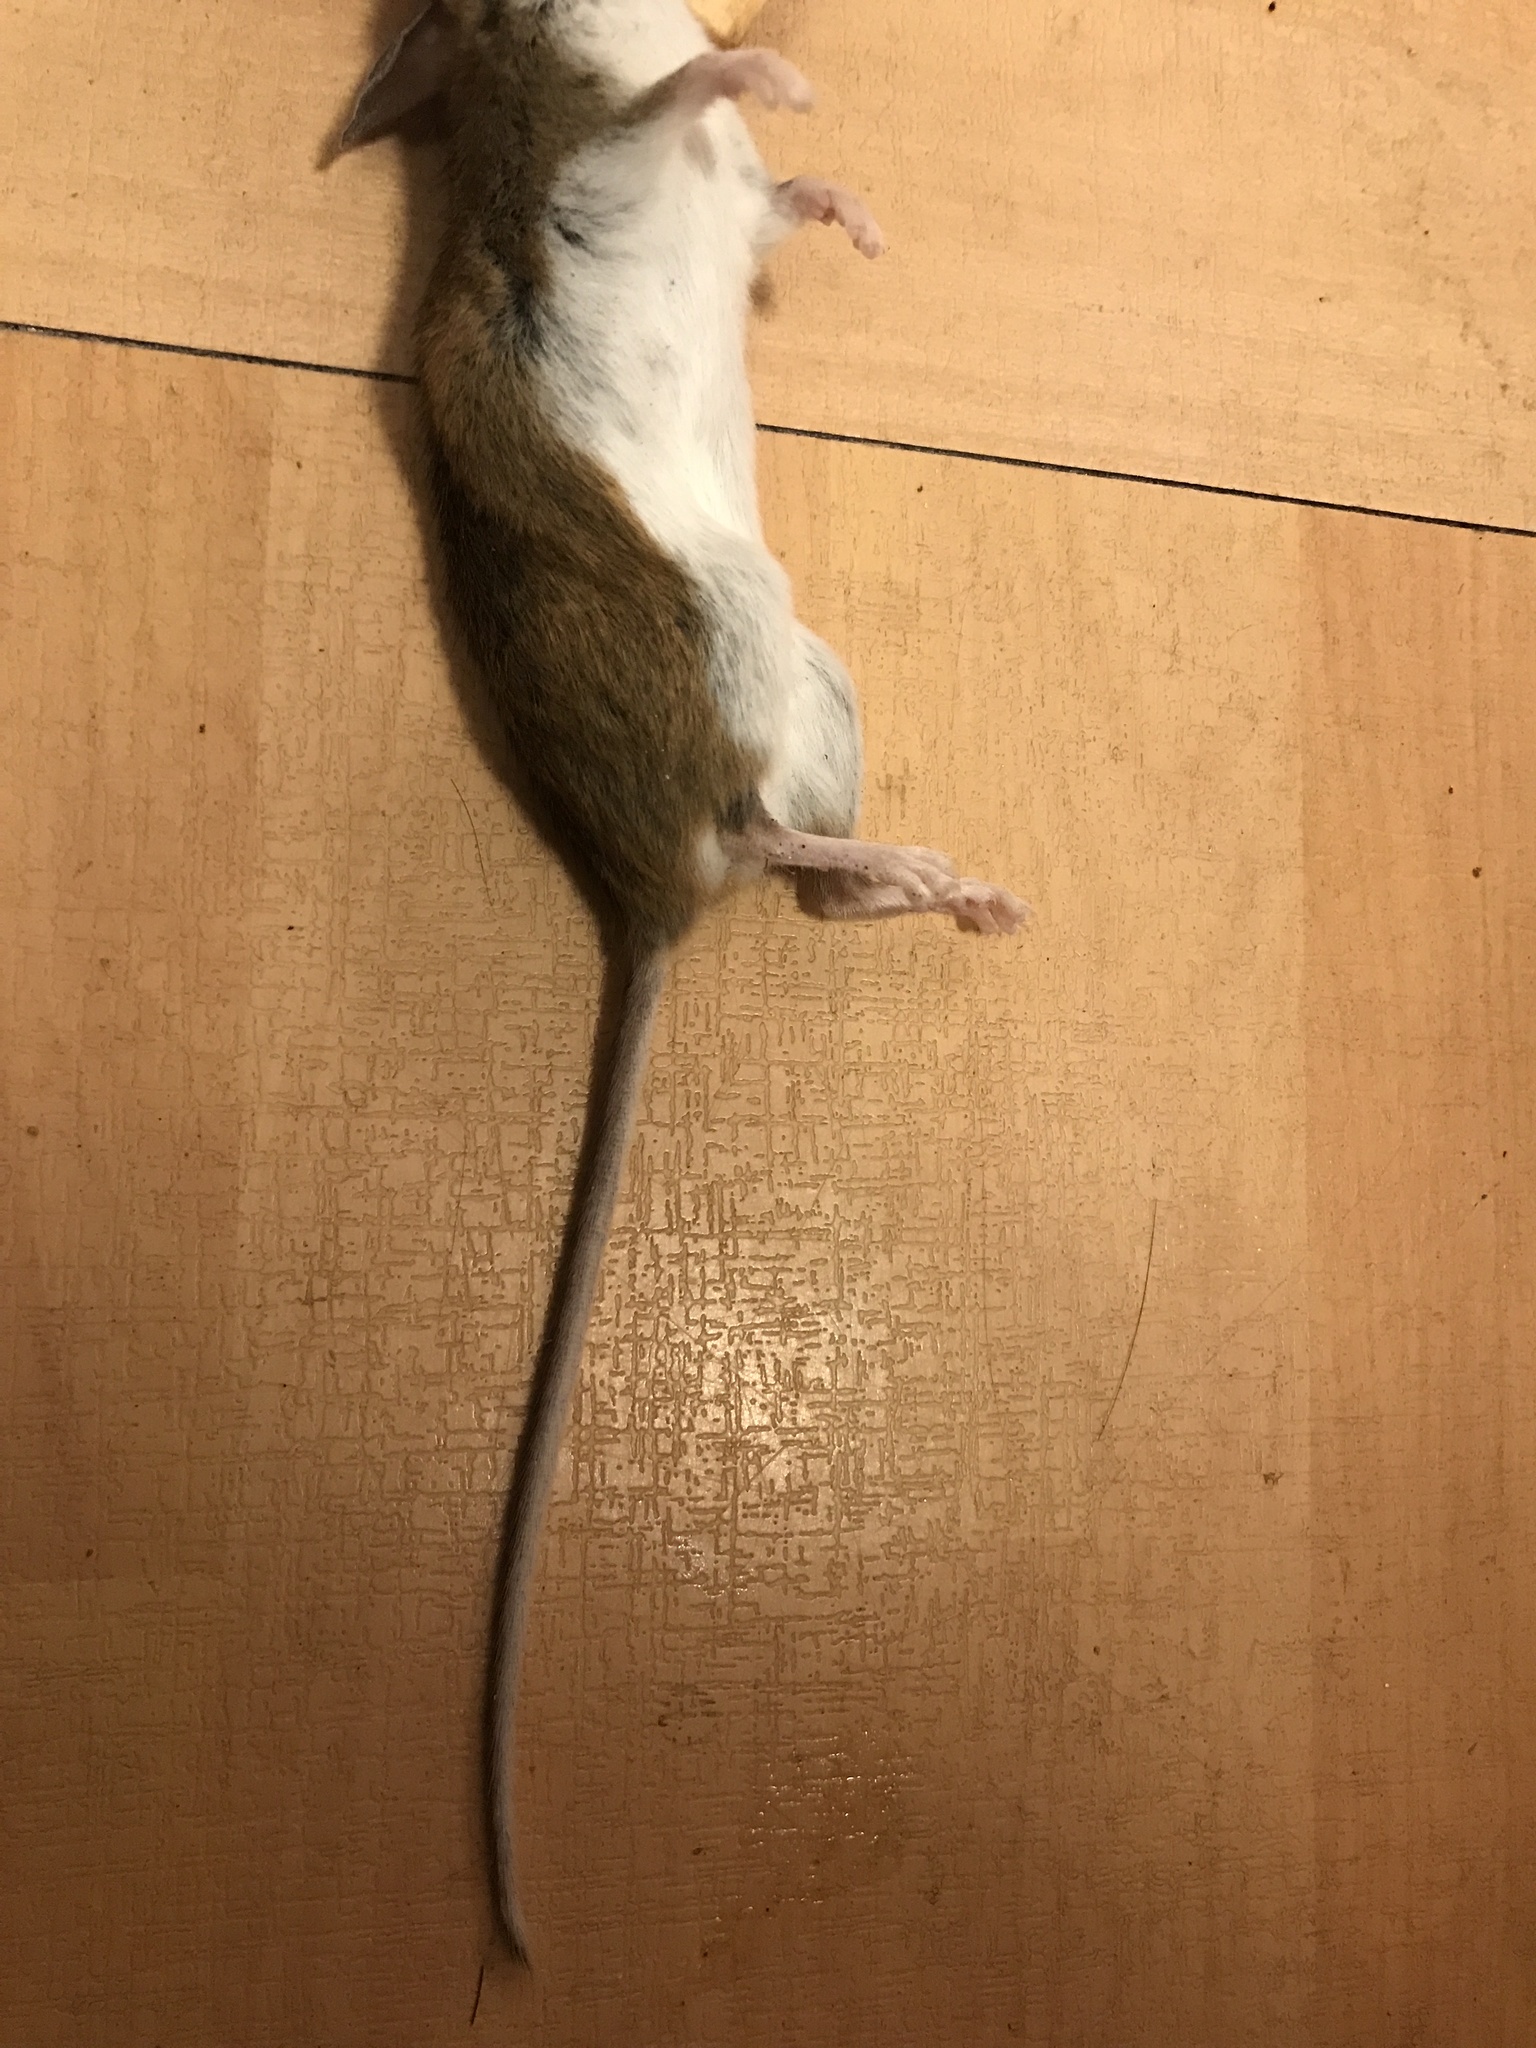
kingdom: Animalia
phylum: Chordata
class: Mammalia
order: Rodentia
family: Cricetidae
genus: Peromyscus
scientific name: Peromyscus leucopus
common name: White-footed deermouse
